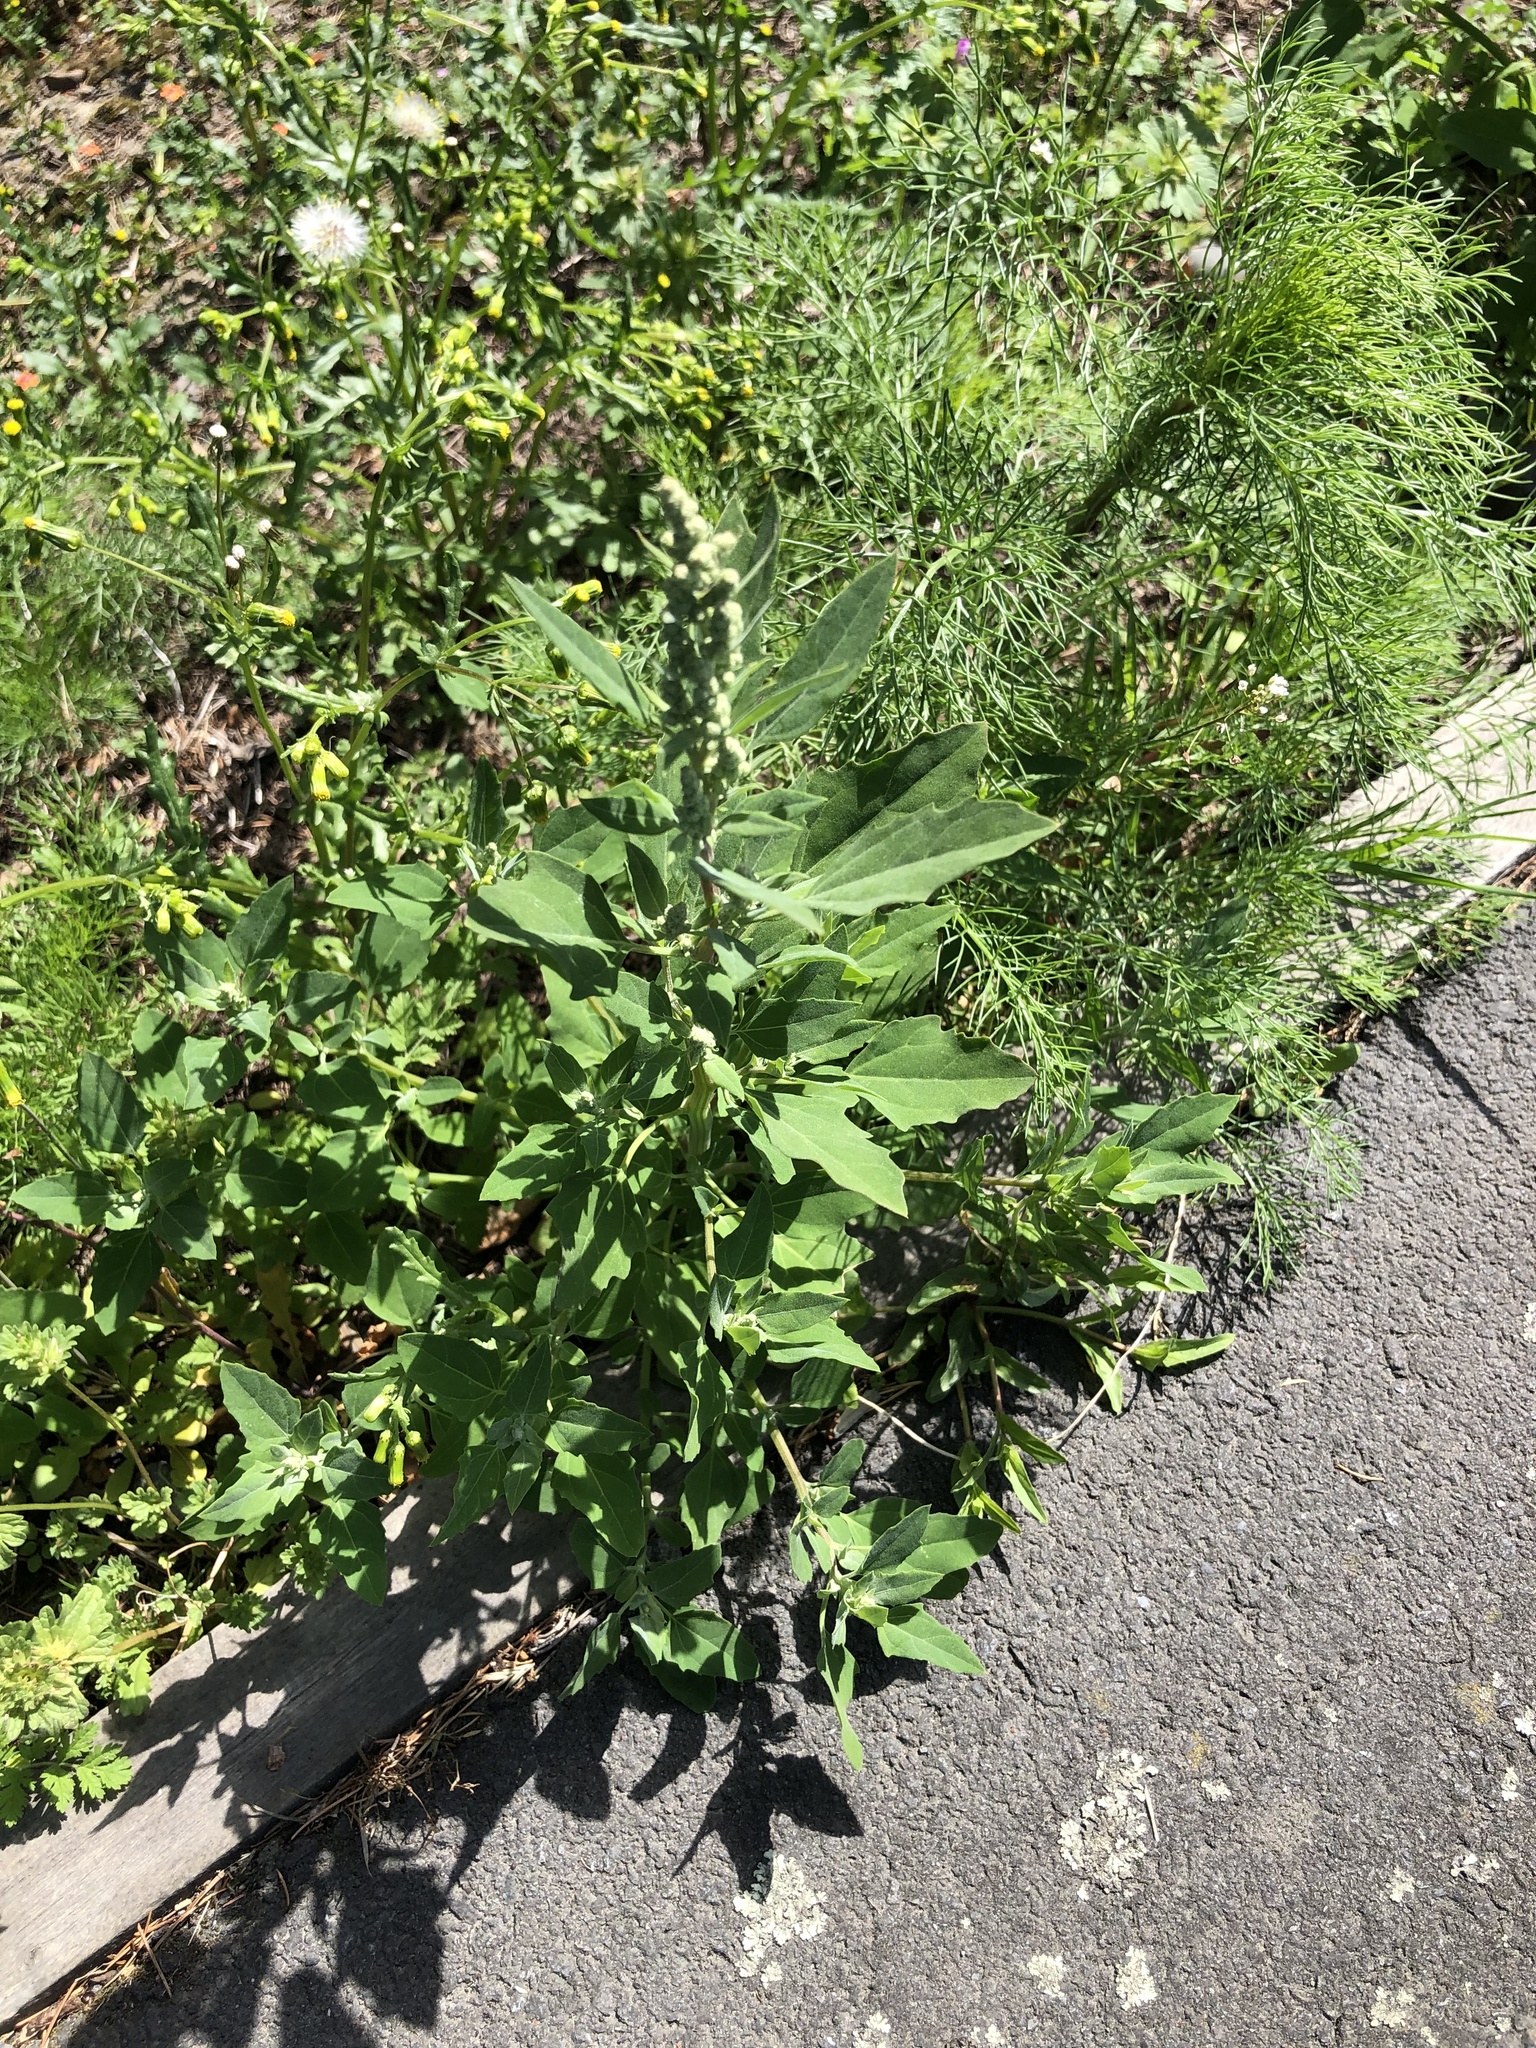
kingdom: Plantae
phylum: Tracheophyta
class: Magnoliopsida
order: Caryophyllales
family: Amaranthaceae
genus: Chenopodium
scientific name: Chenopodium album
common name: Fat-hen
